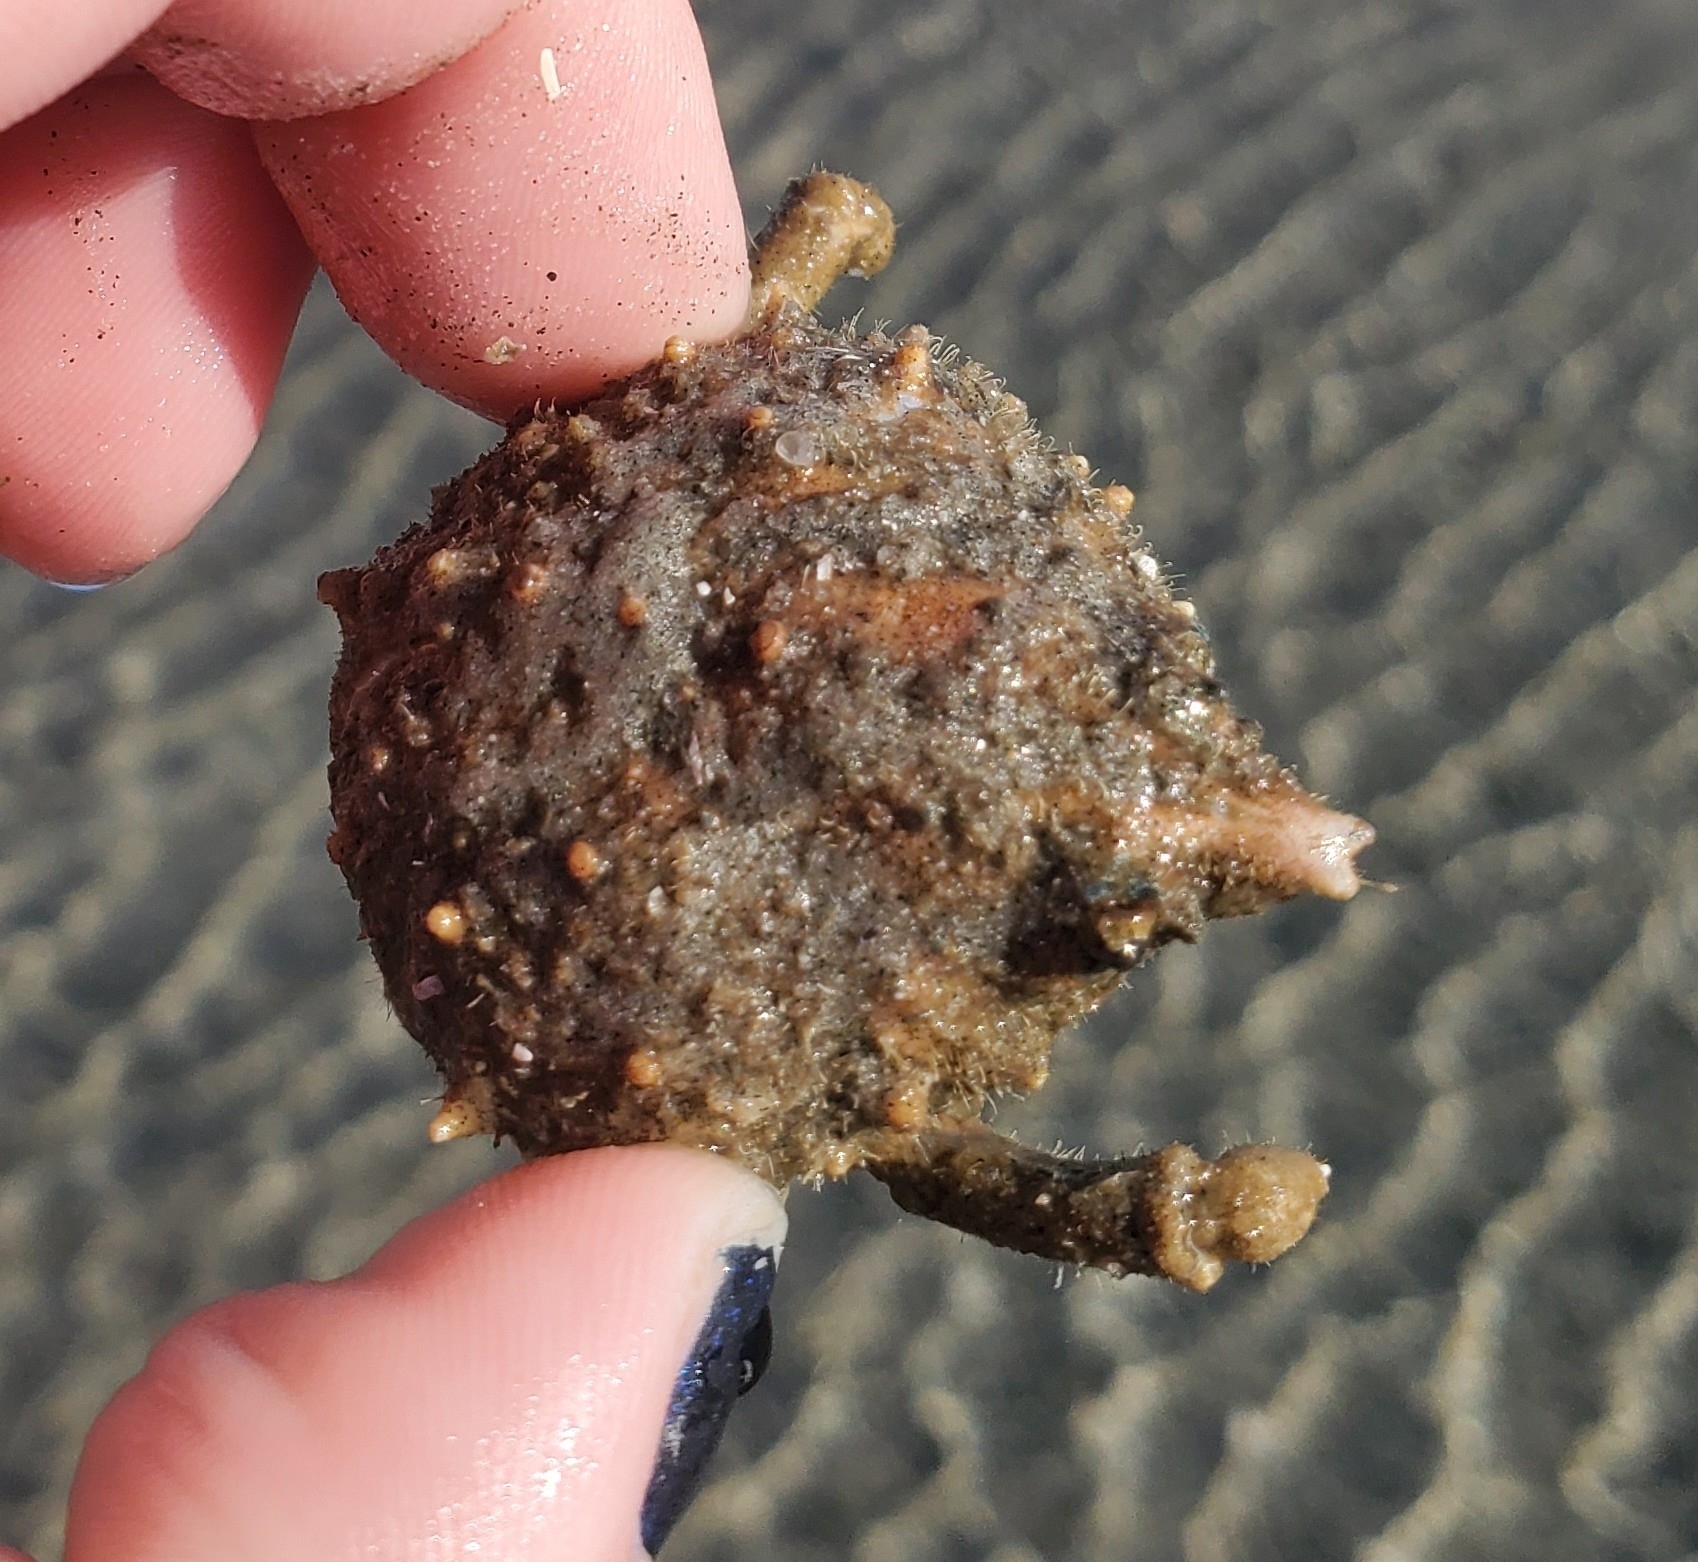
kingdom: Animalia
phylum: Arthropoda
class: Malacostraca
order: Decapoda
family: Epialtidae
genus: Libinia
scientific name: Libinia emarginata
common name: Common spider crab
